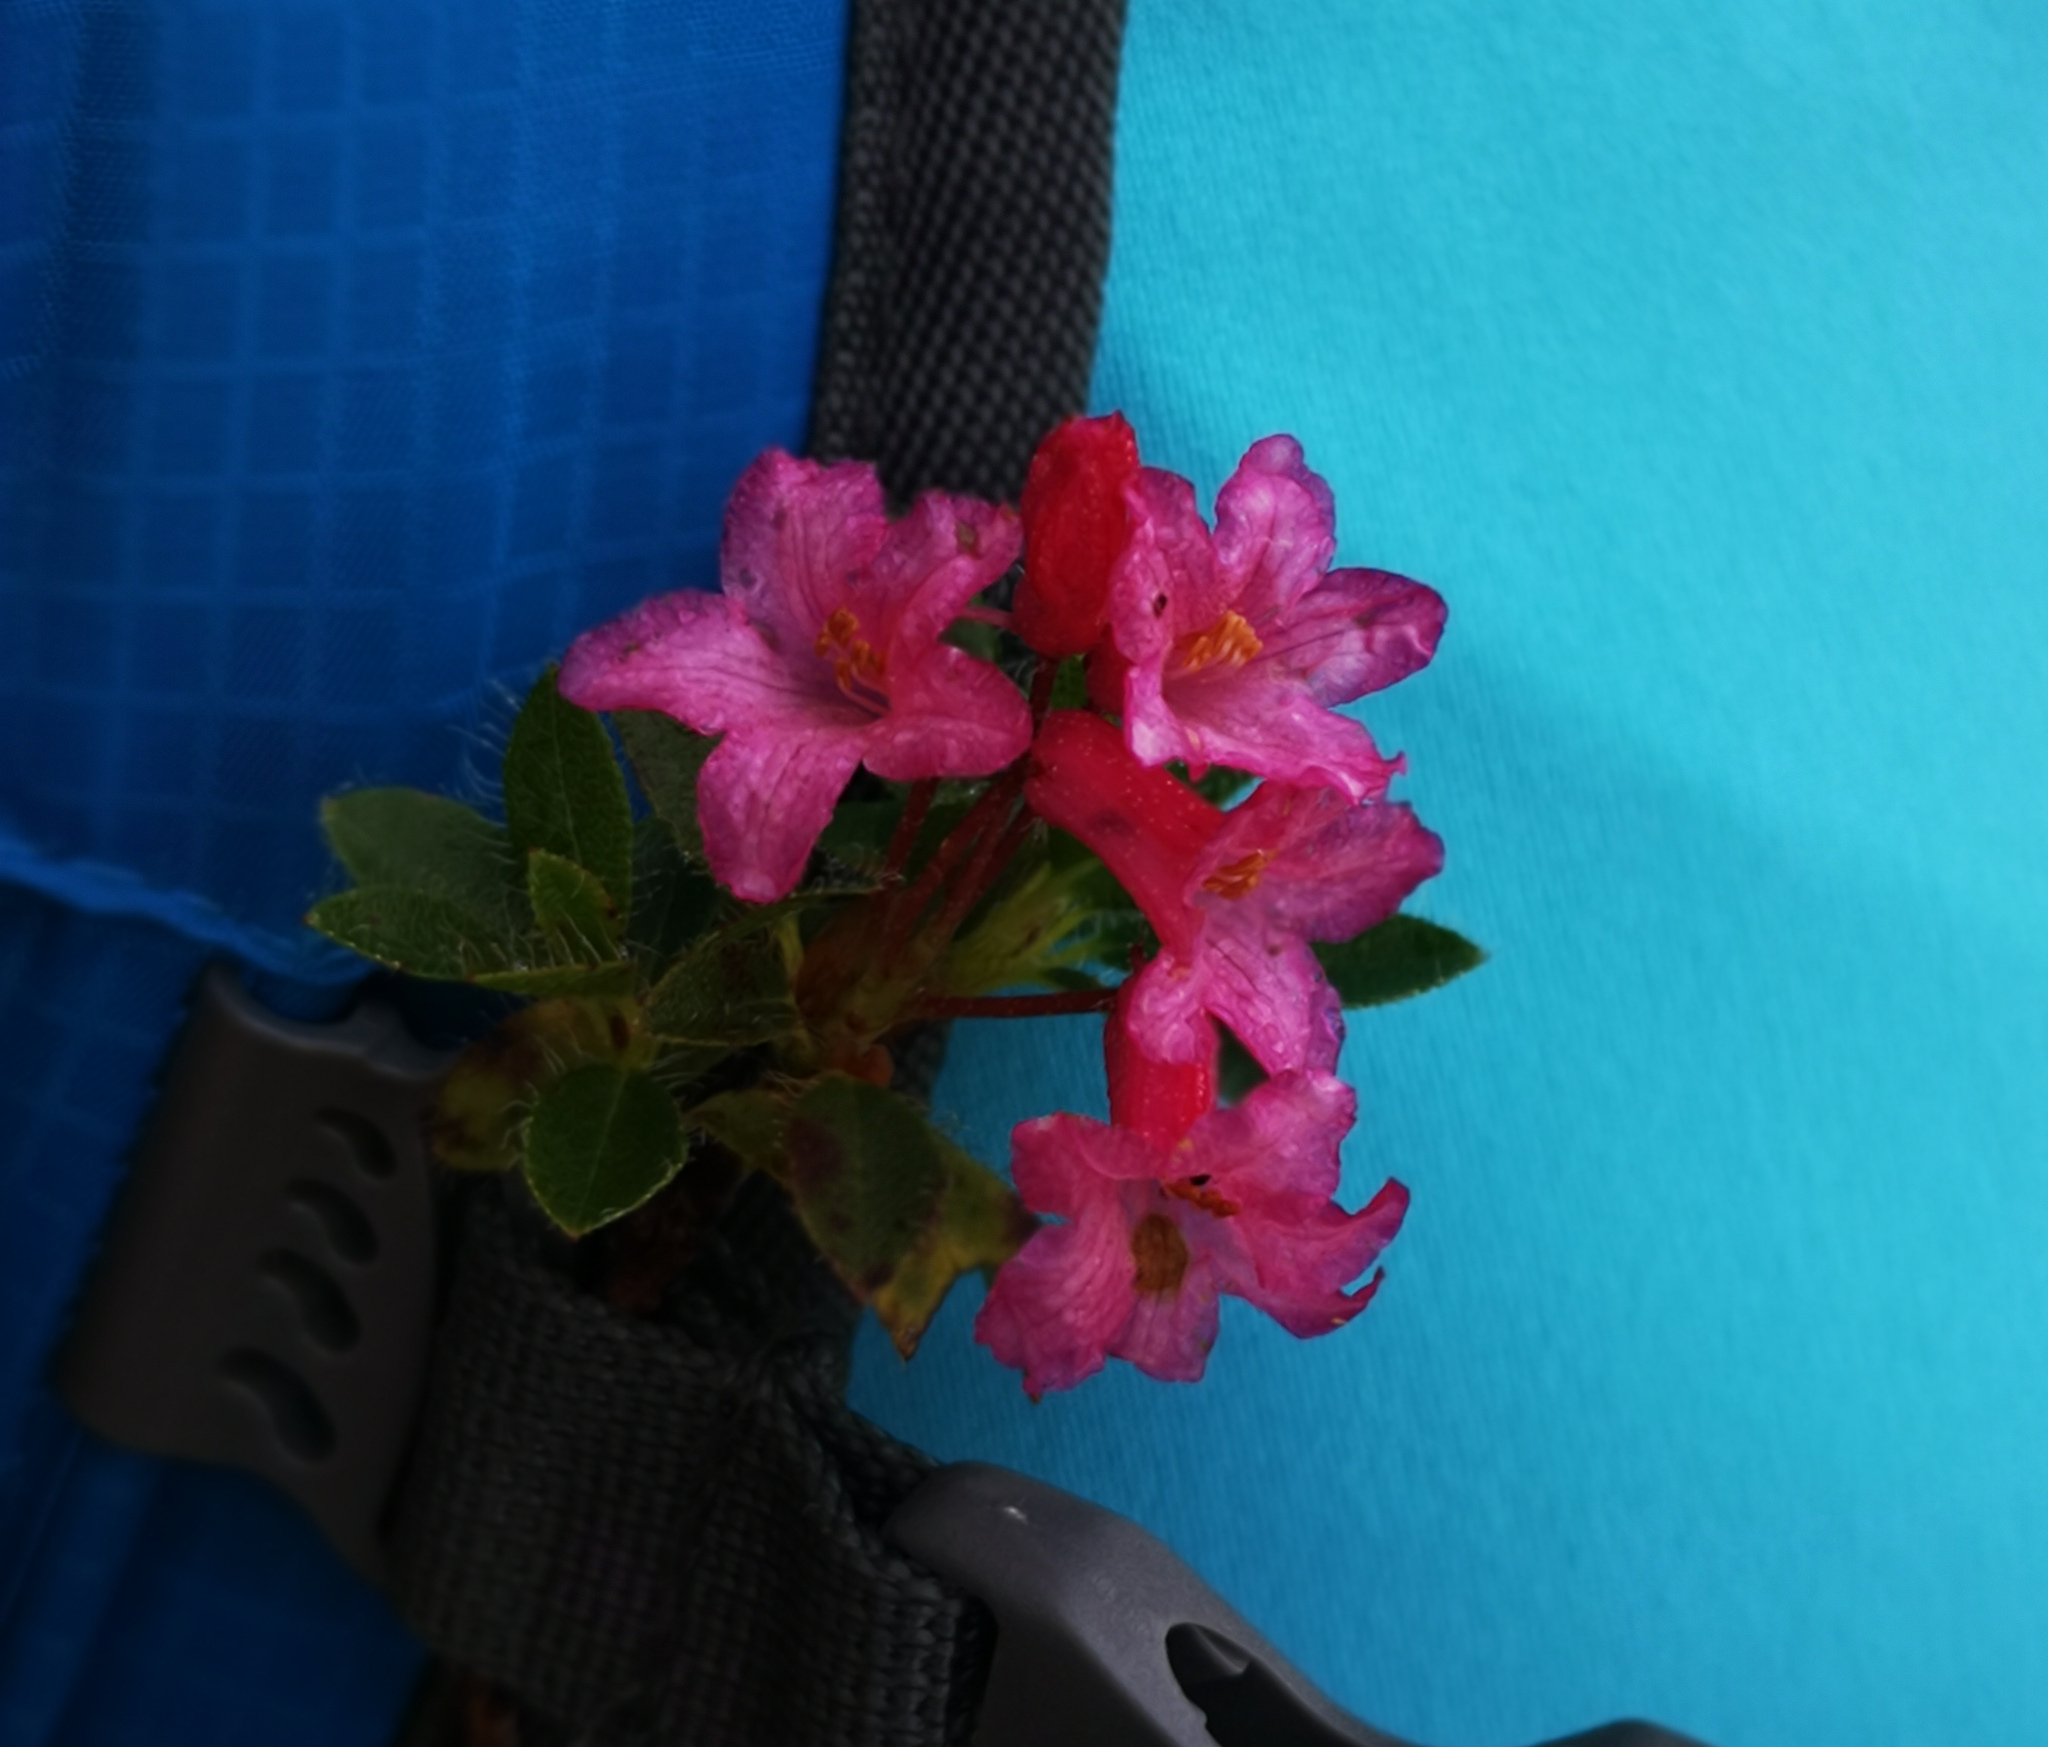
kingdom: Plantae
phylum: Tracheophyta
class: Magnoliopsida
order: Ericales
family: Ericaceae
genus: Rhododendron
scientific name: Rhododendron hirsutum
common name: Hairy alpenrose
